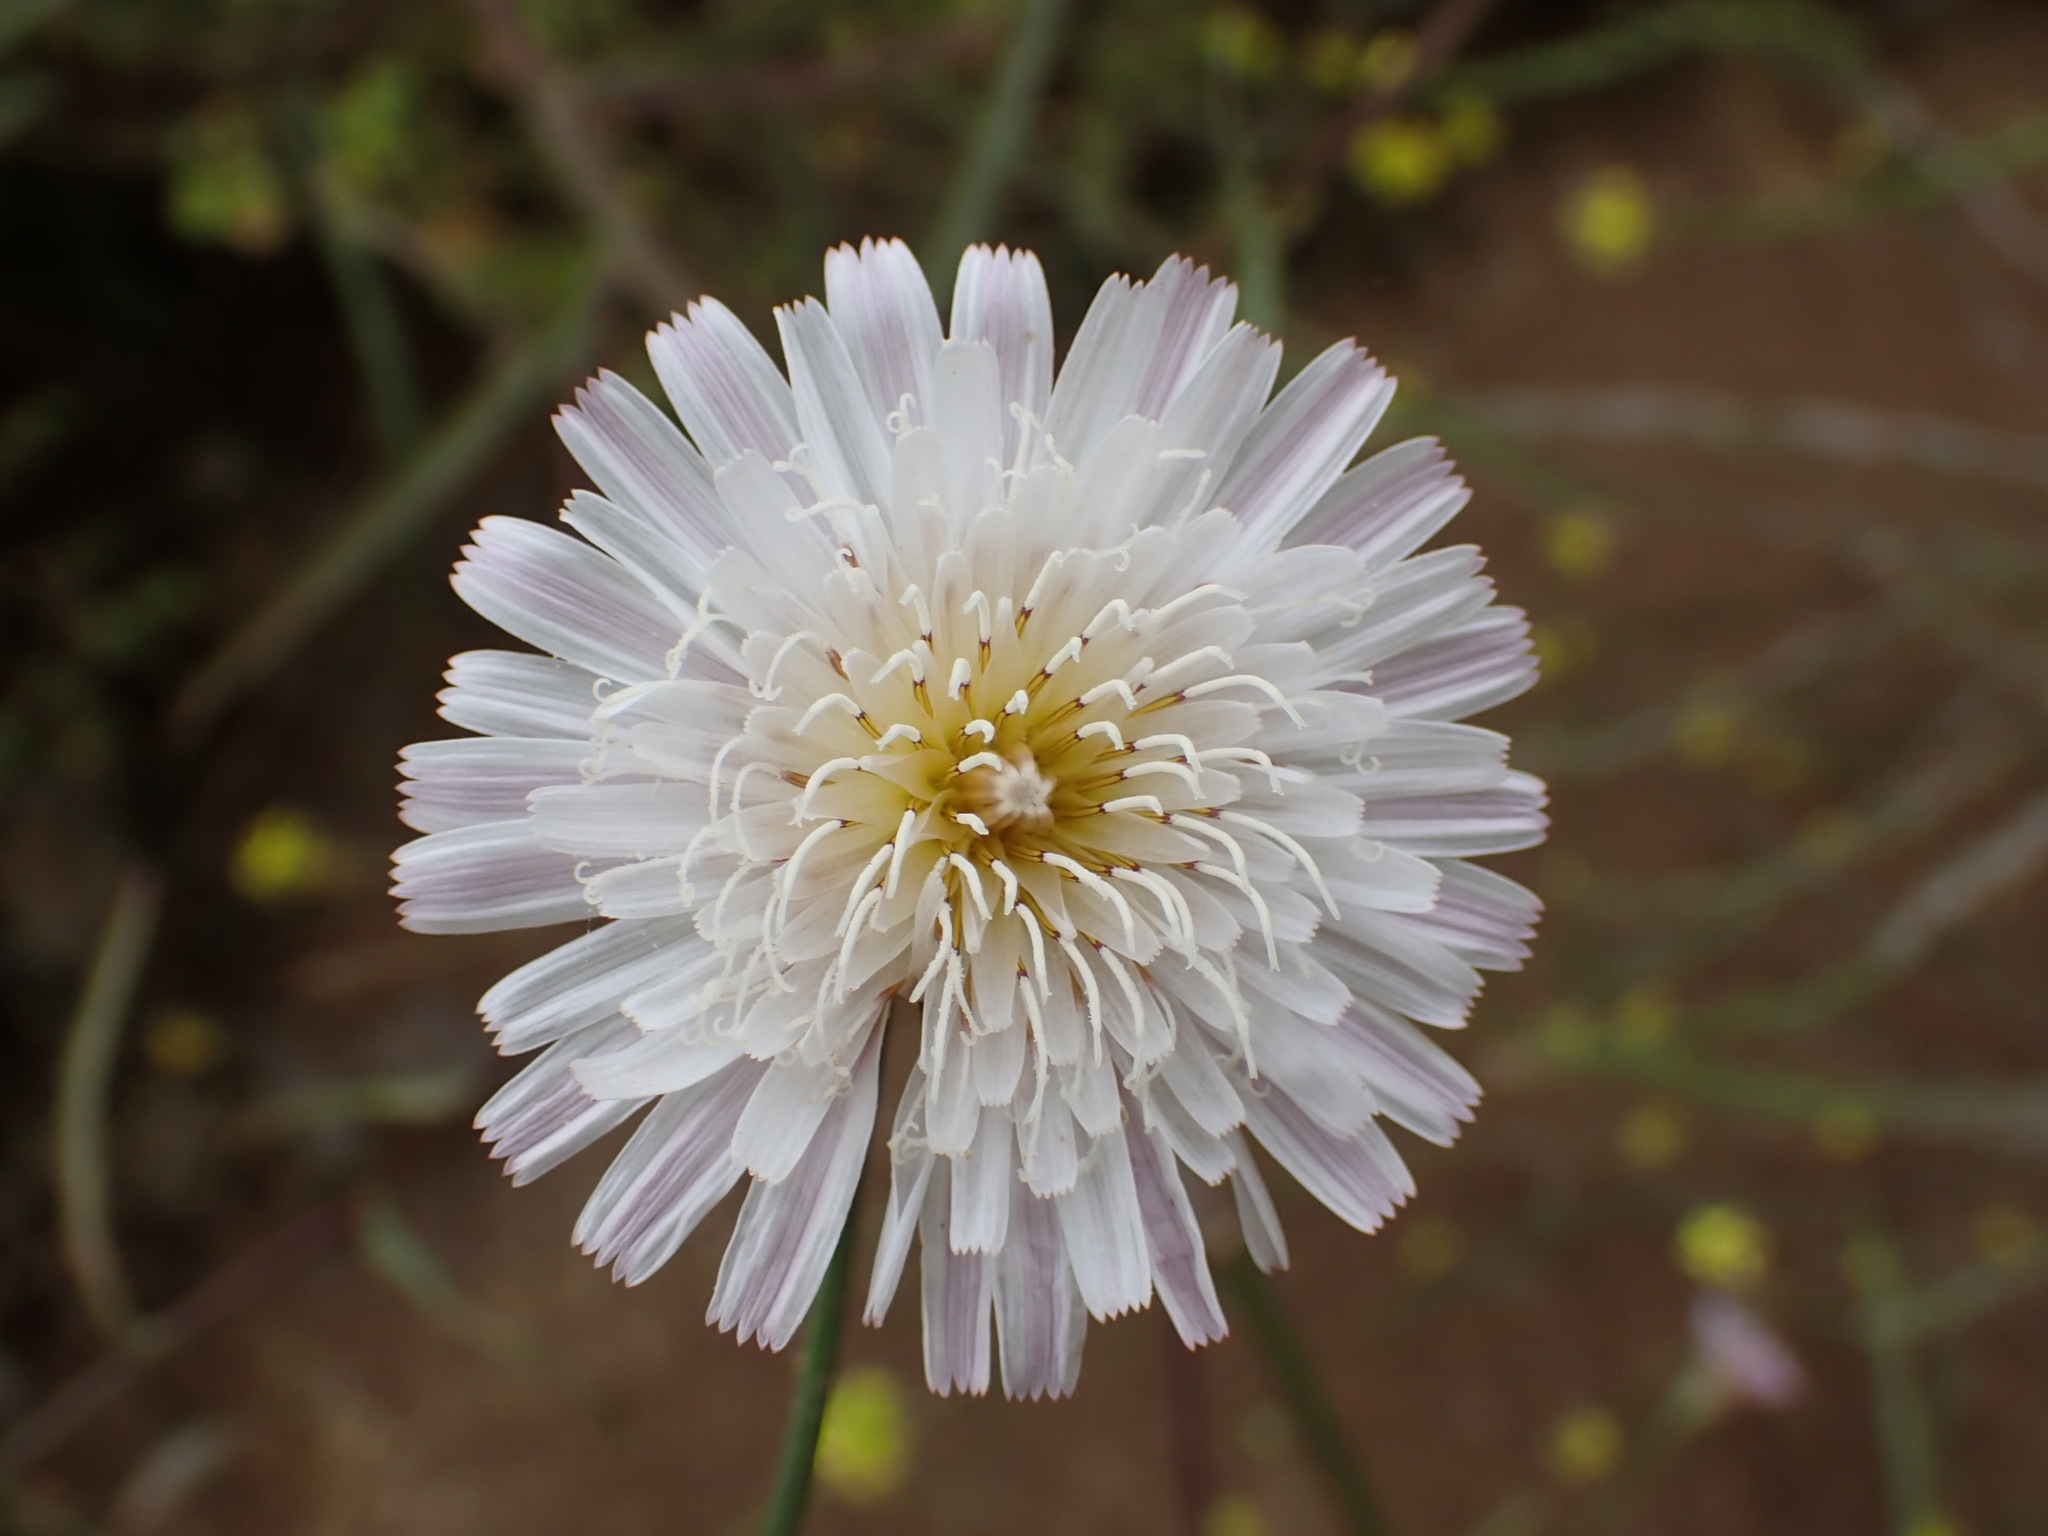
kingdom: Plantae
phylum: Tracheophyta
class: Magnoliopsida
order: Asterales
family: Asteraceae
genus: Malacothrix
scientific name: Malacothrix saxatilis
